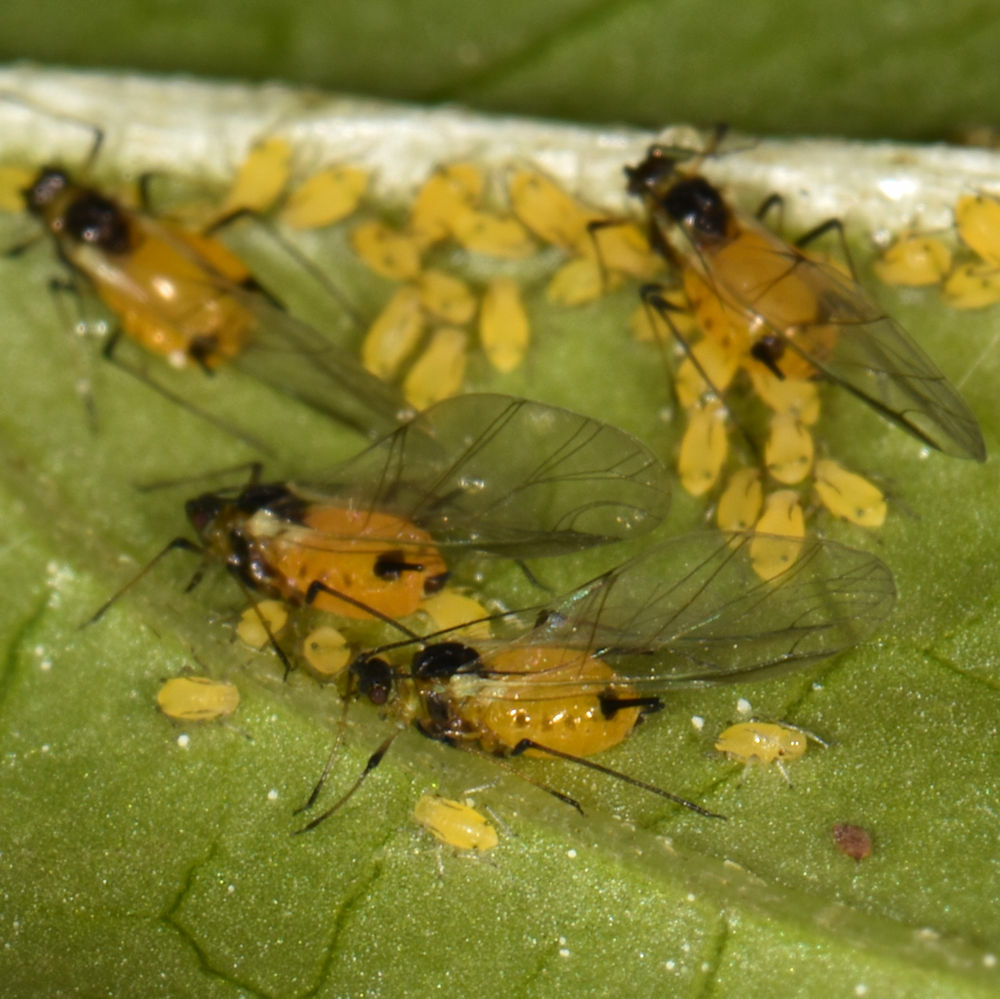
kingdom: Animalia
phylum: Arthropoda
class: Insecta
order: Hemiptera
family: Aphididae
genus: Aphis
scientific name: Aphis nerii
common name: Oleander aphid
